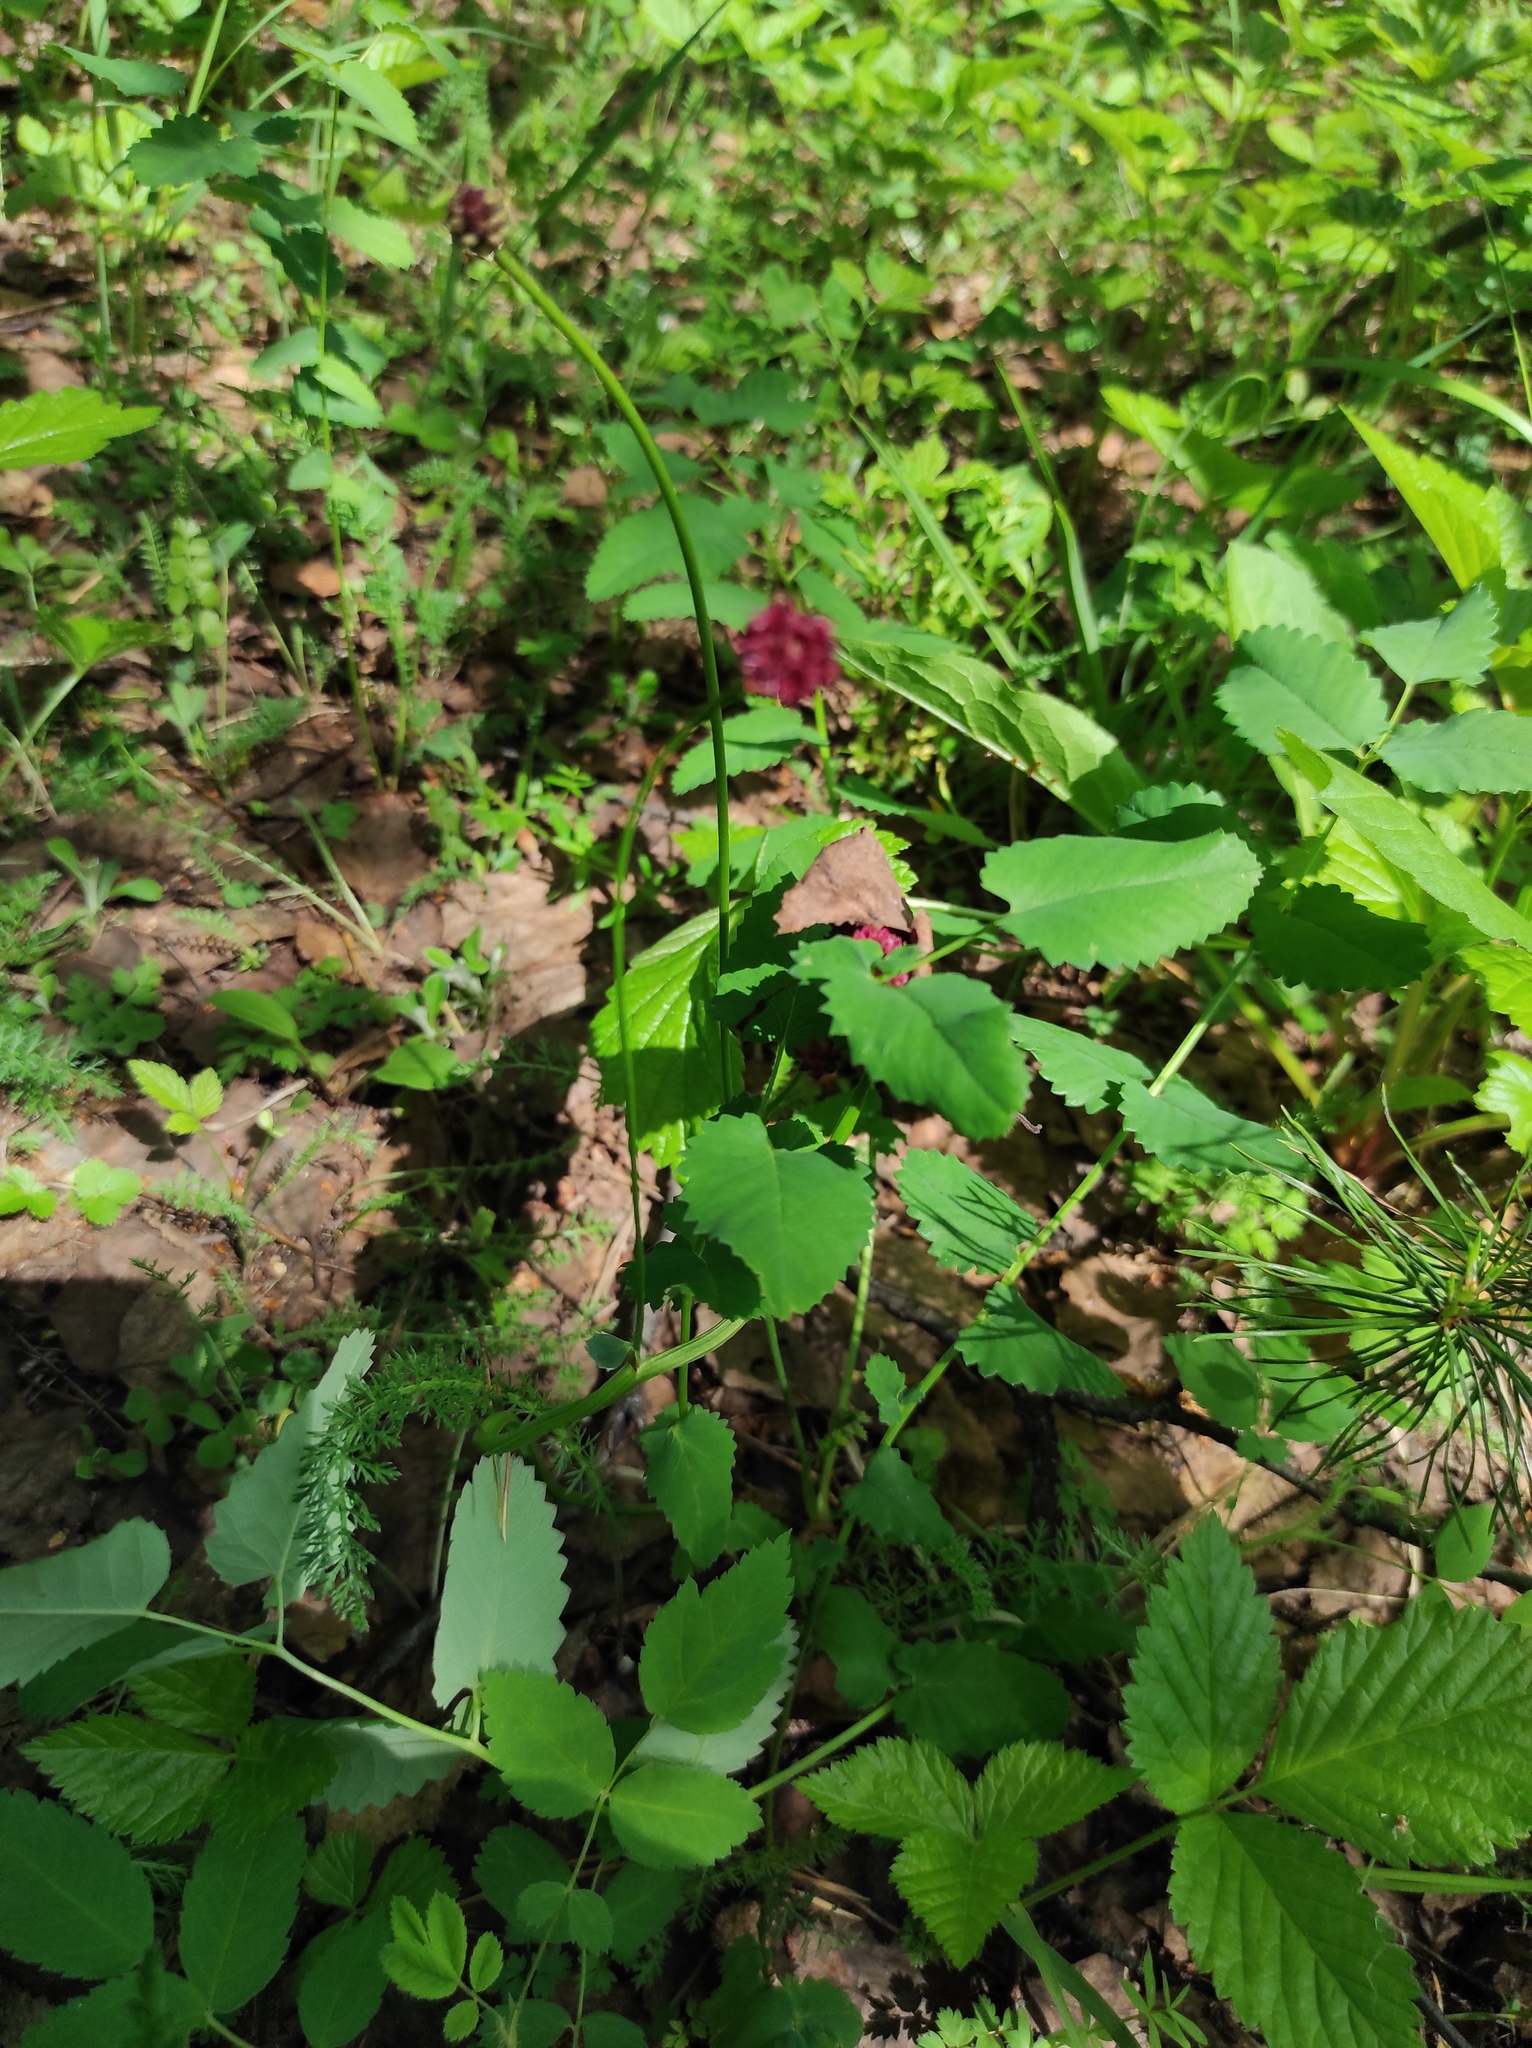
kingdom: Plantae
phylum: Tracheophyta
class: Magnoliopsida
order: Rosales
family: Rosaceae
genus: Sanguisorba
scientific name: Sanguisorba officinalis
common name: Great burnet
